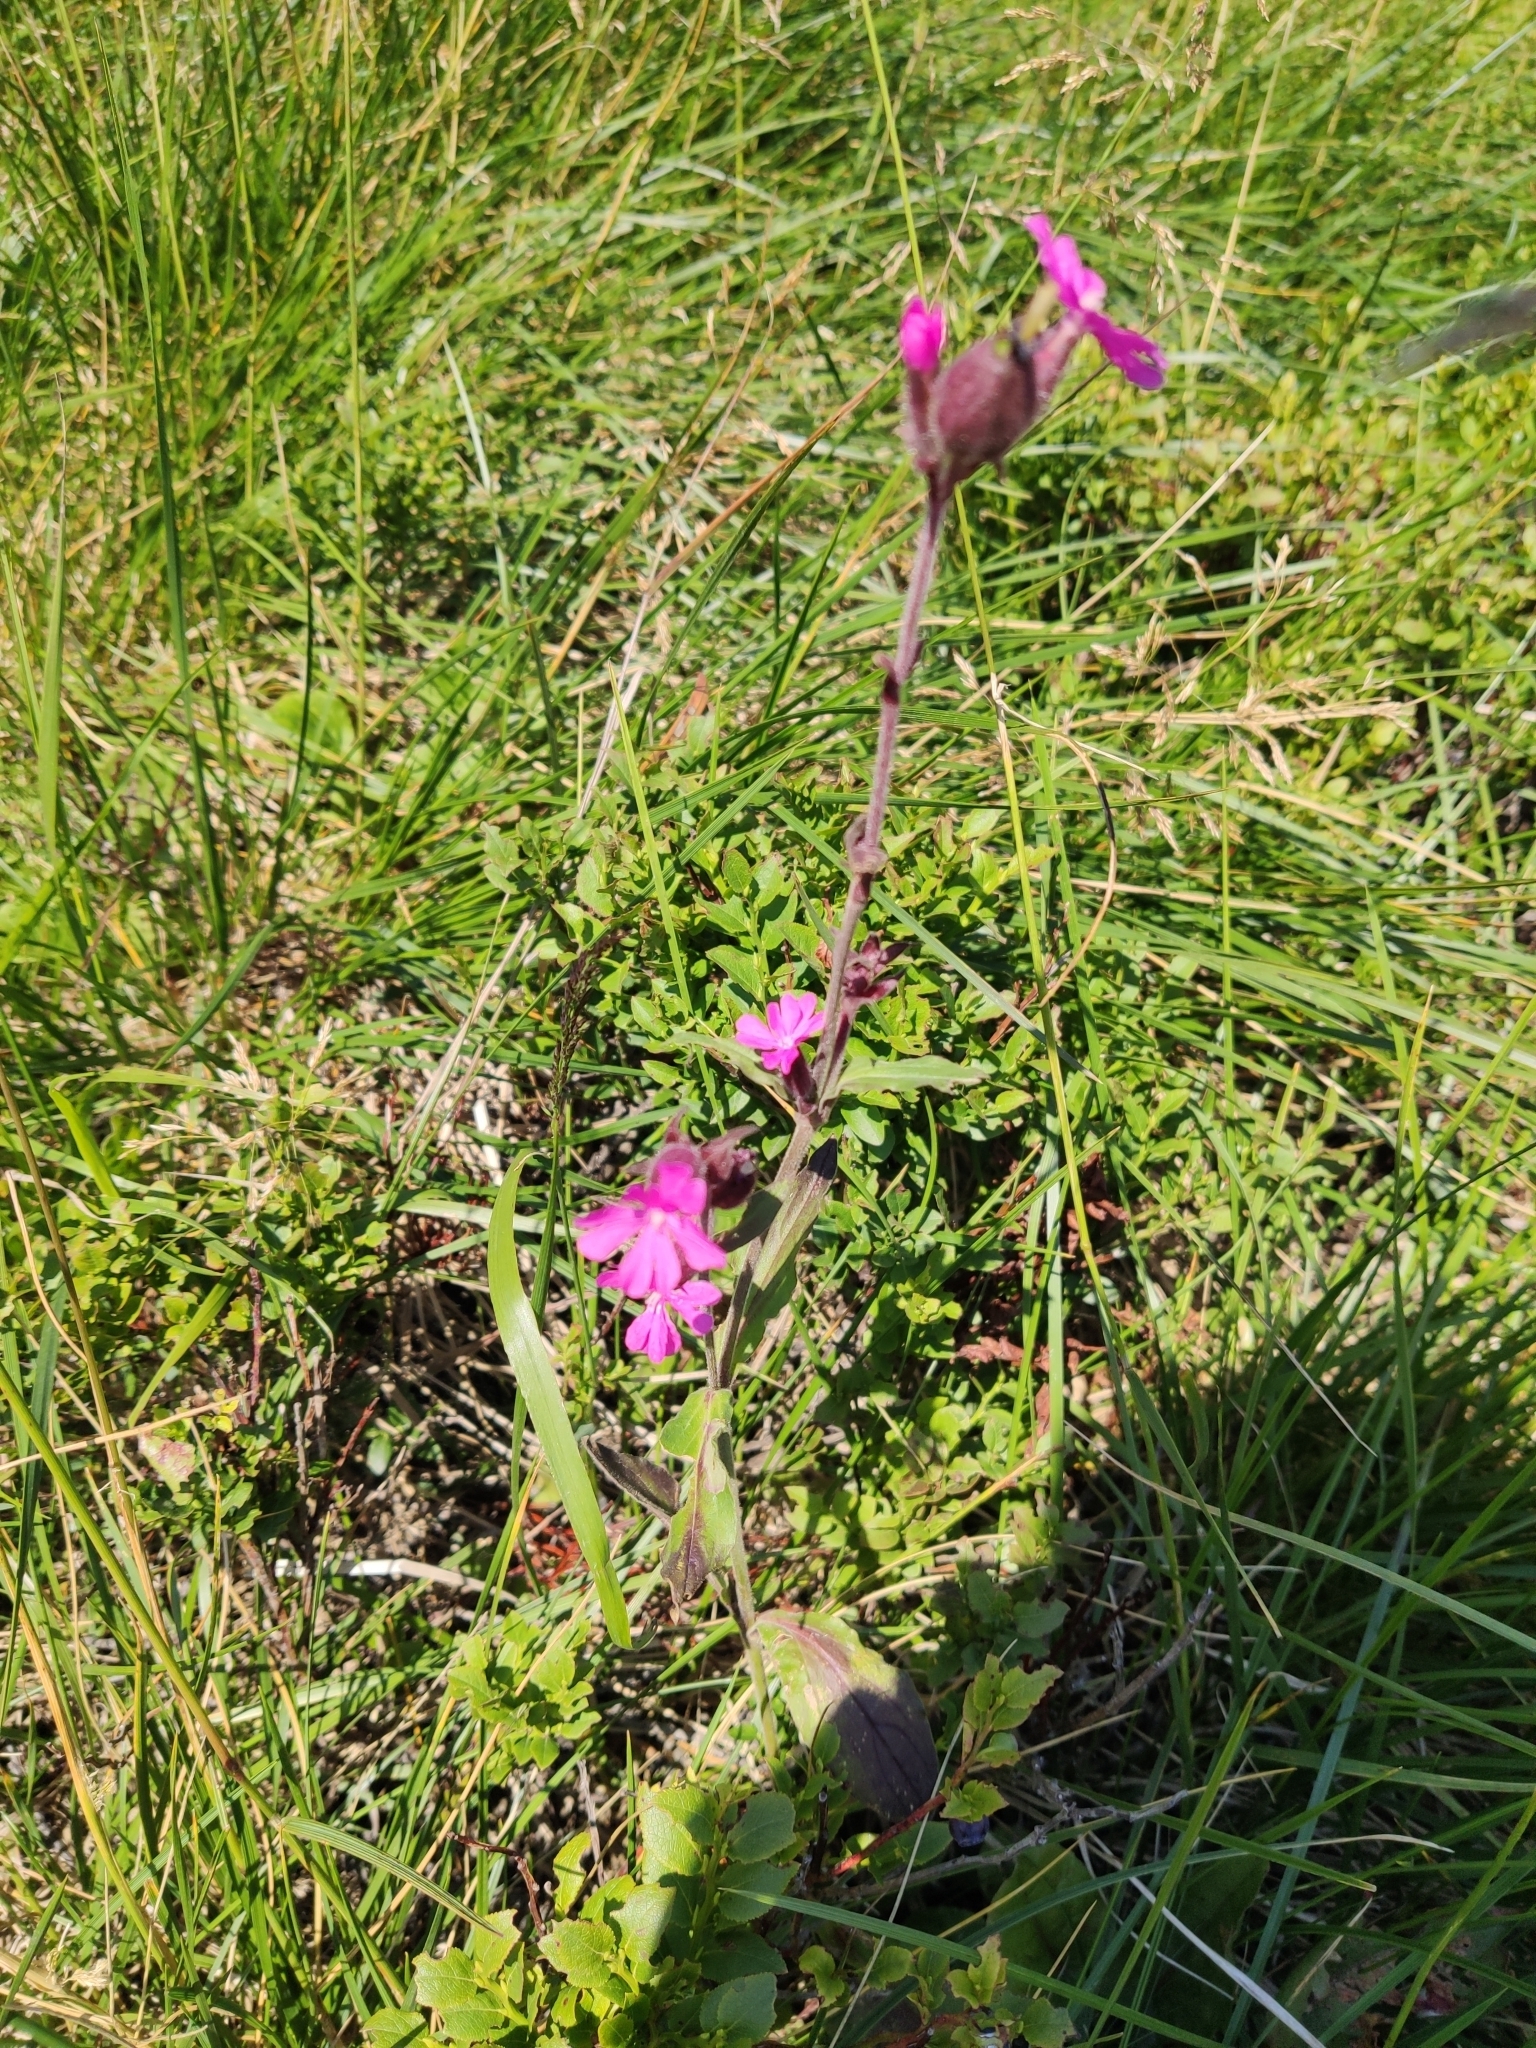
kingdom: Plantae
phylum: Tracheophyta
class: Magnoliopsida
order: Caryophyllales
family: Caryophyllaceae
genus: Silene
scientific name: Silene dioica
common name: Red campion
